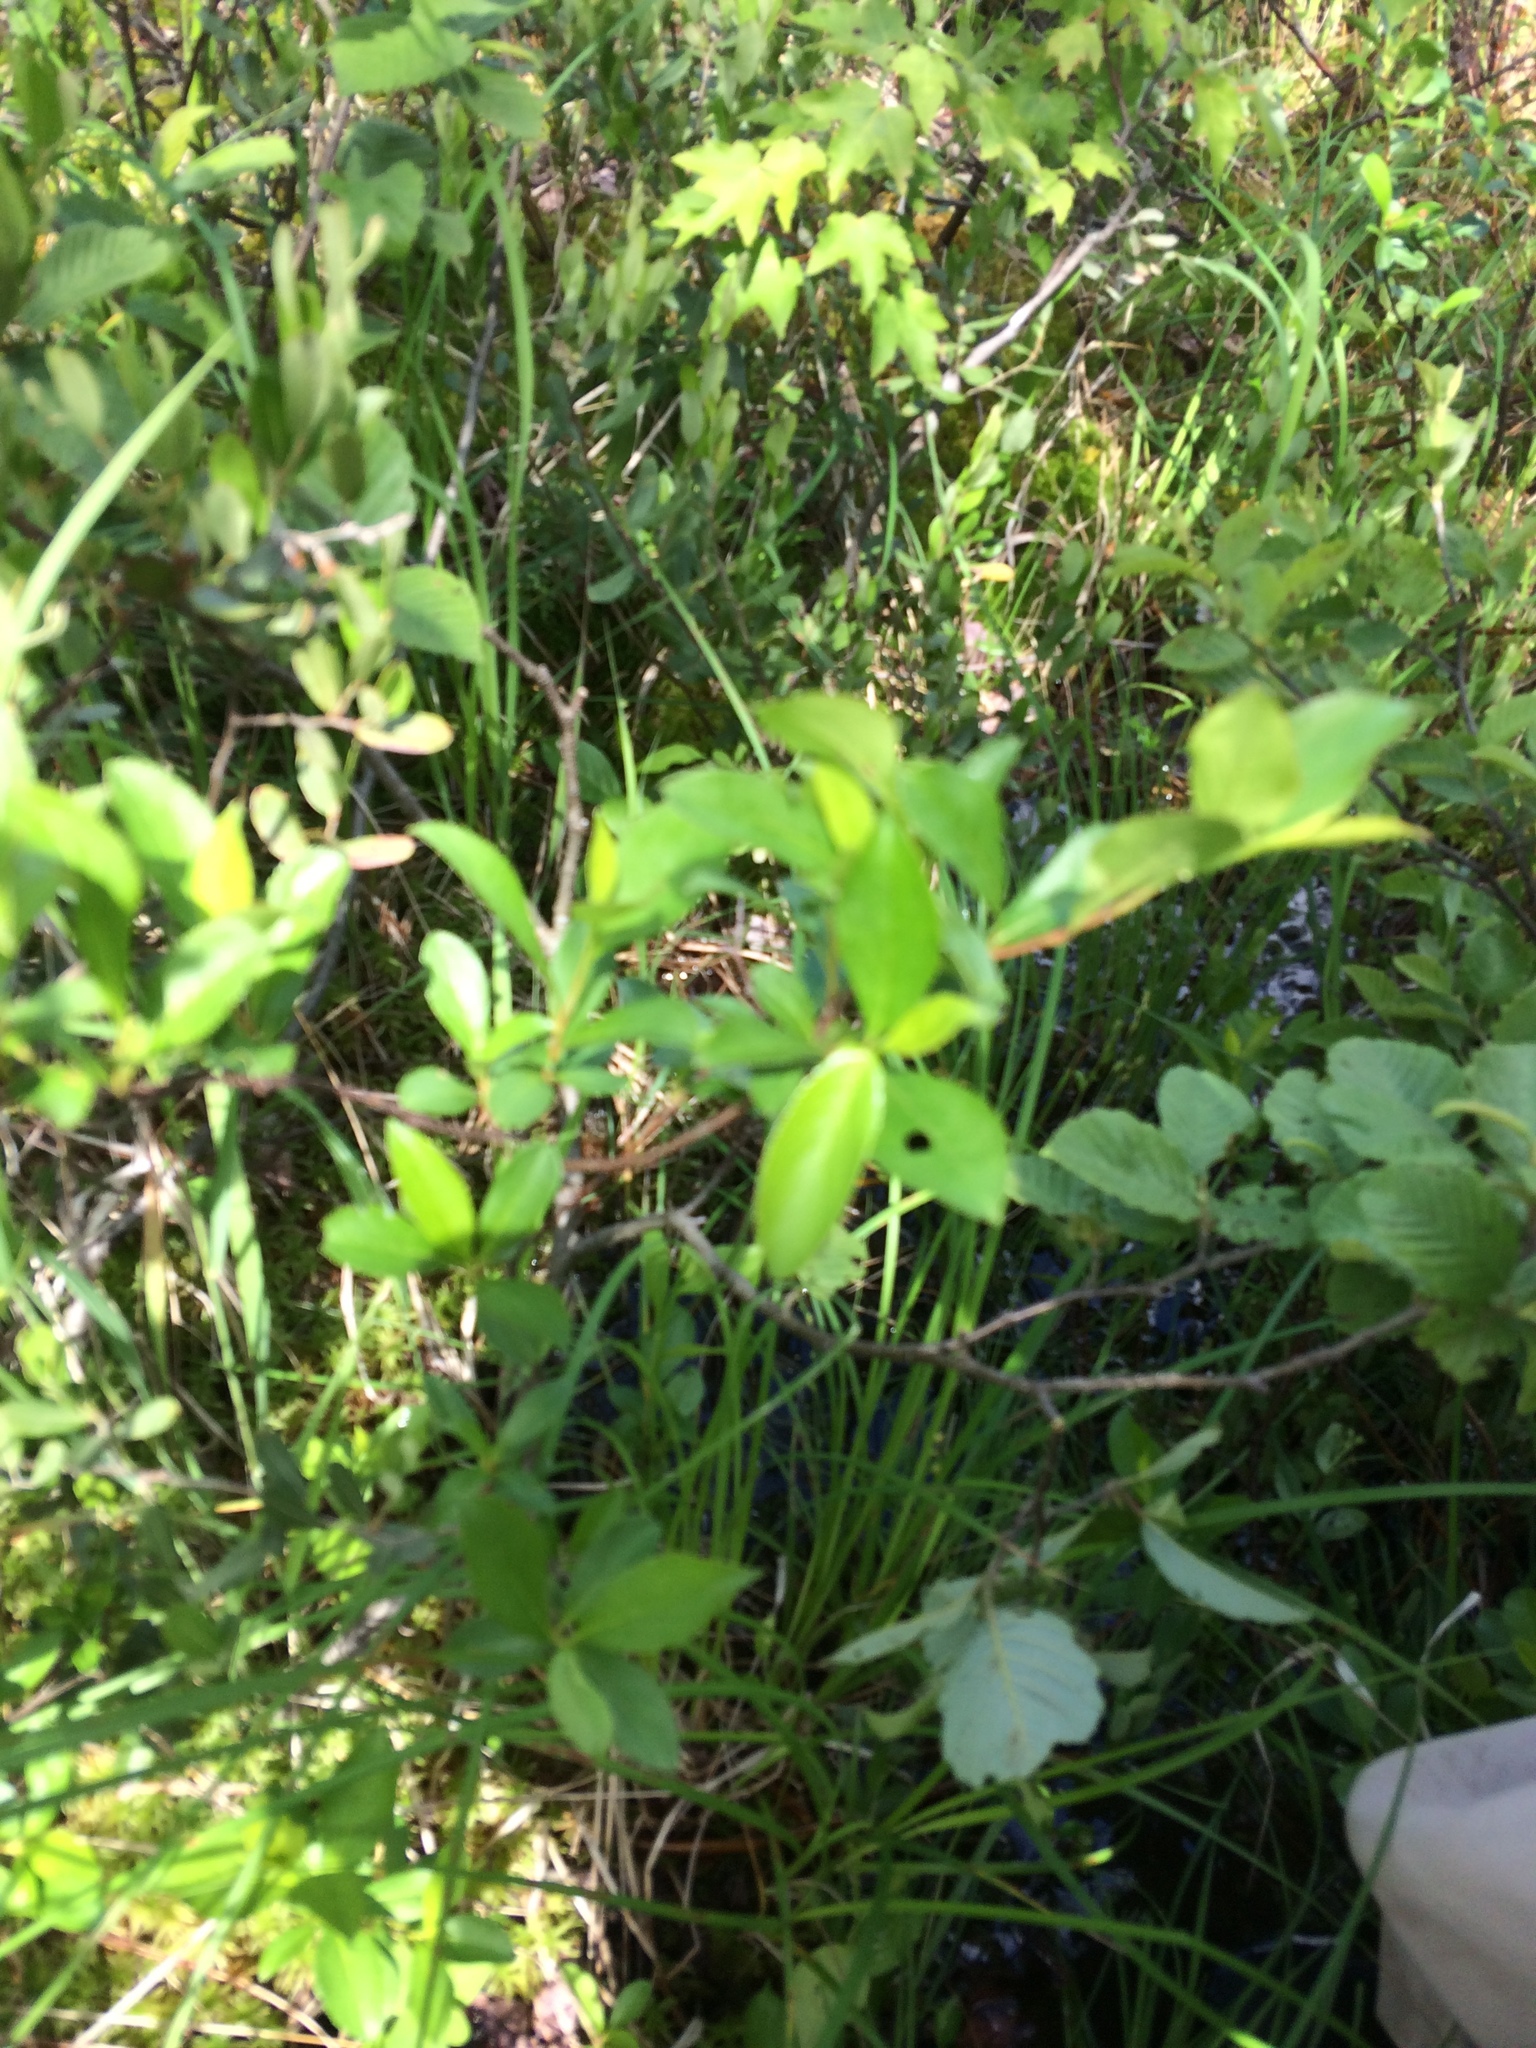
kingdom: Plantae
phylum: Tracheophyta
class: Magnoliopsida
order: Rosales
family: Rosaceae
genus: Aronia
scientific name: Aronia melanocarpa
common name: Black chokeberry
